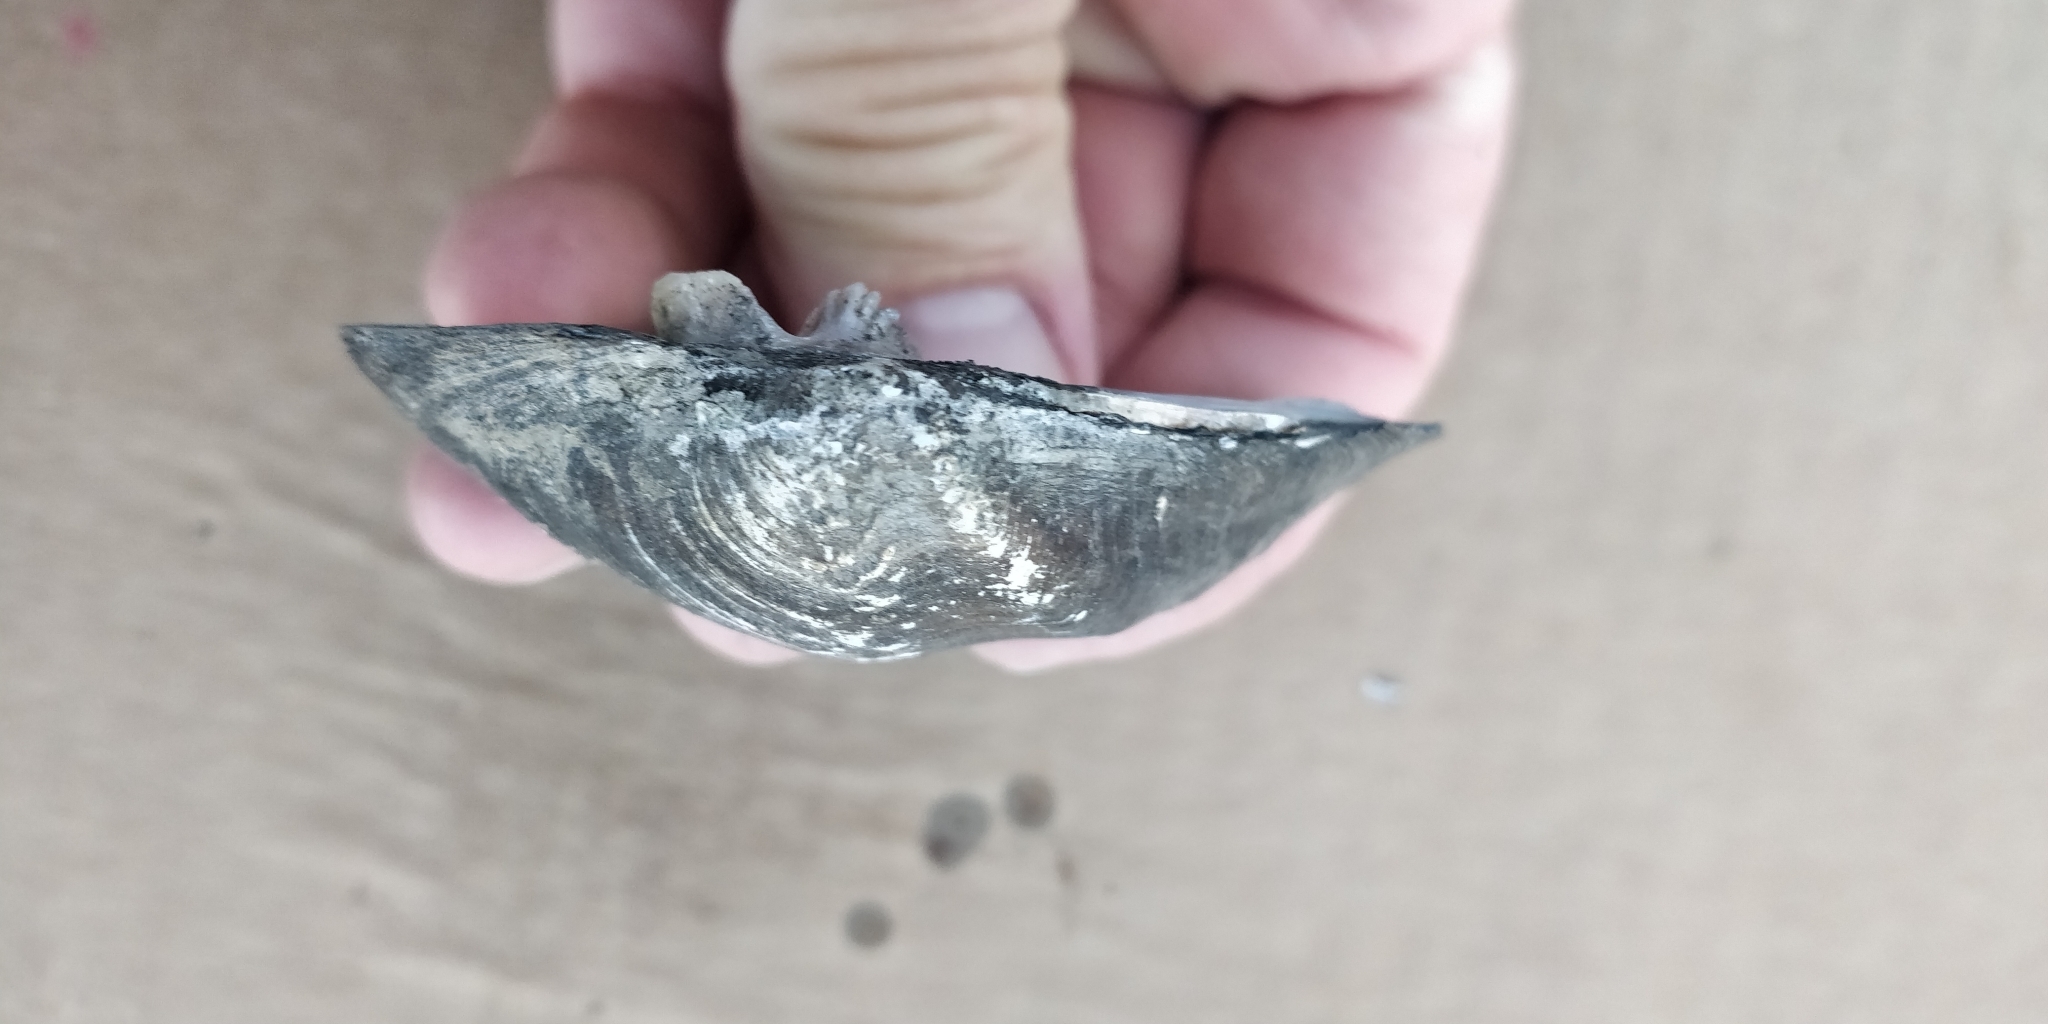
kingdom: Animalia
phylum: Mollusca
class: Bivalvia
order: Unionida
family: Unionidae
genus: Quadrula
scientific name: Quadrula quadrula
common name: Mapleleaf
